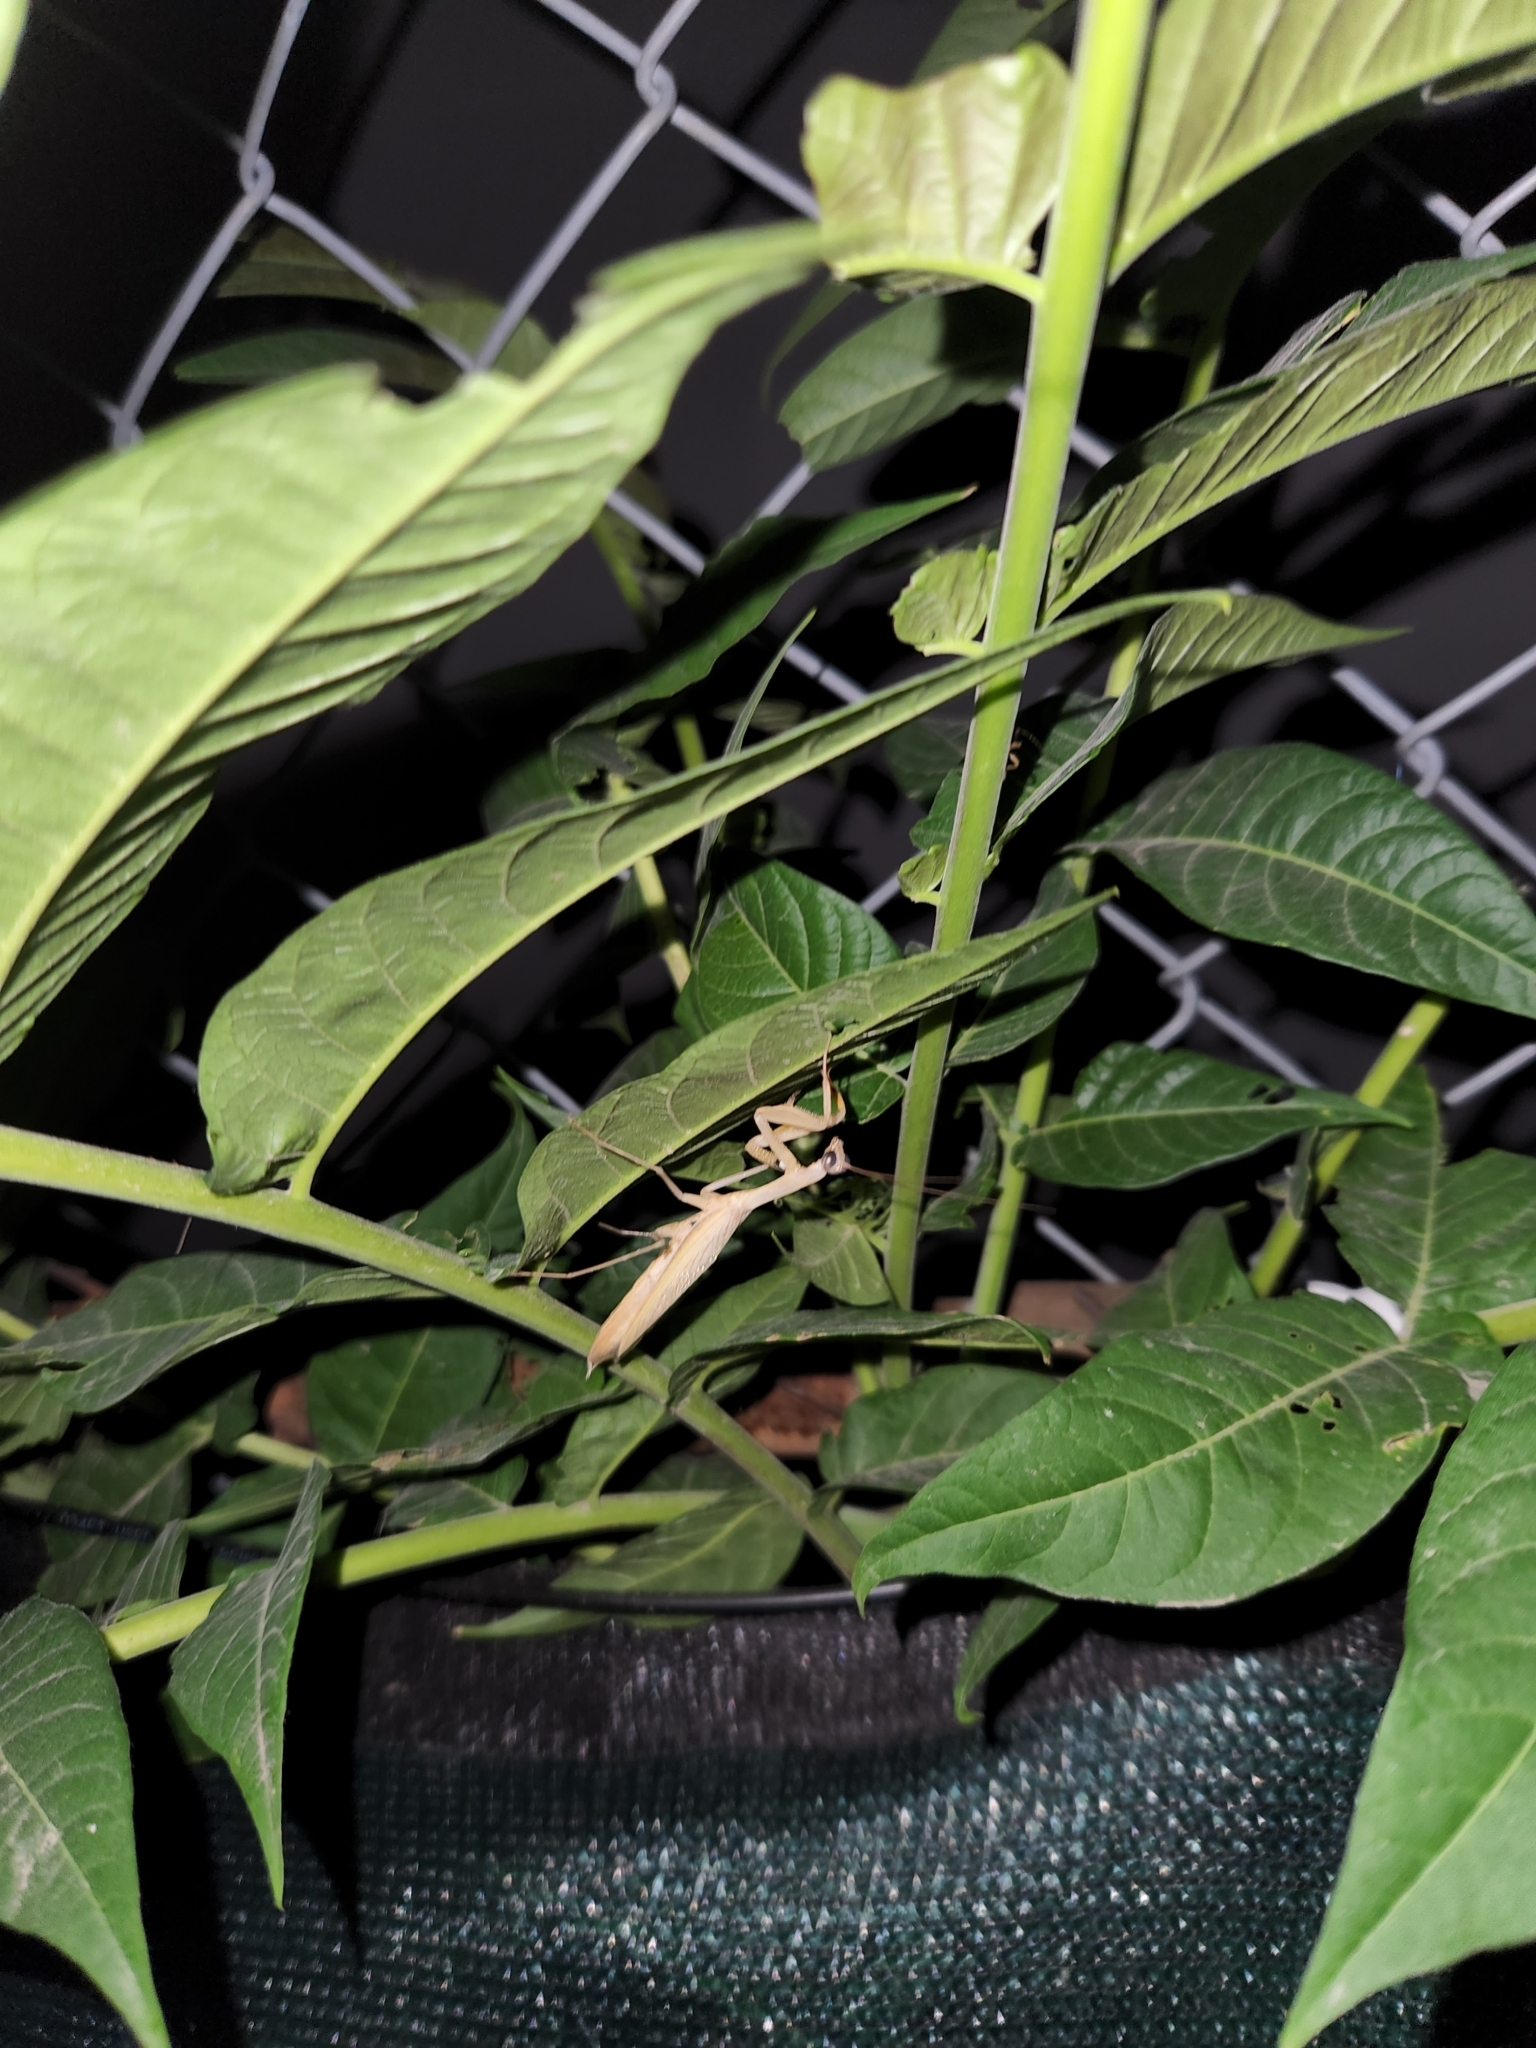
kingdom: Animalia
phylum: Arthropoda
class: Insecta
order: Mantodea
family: Mantidae
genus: Mantis
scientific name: Mantis religiosa
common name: Praying mantis
